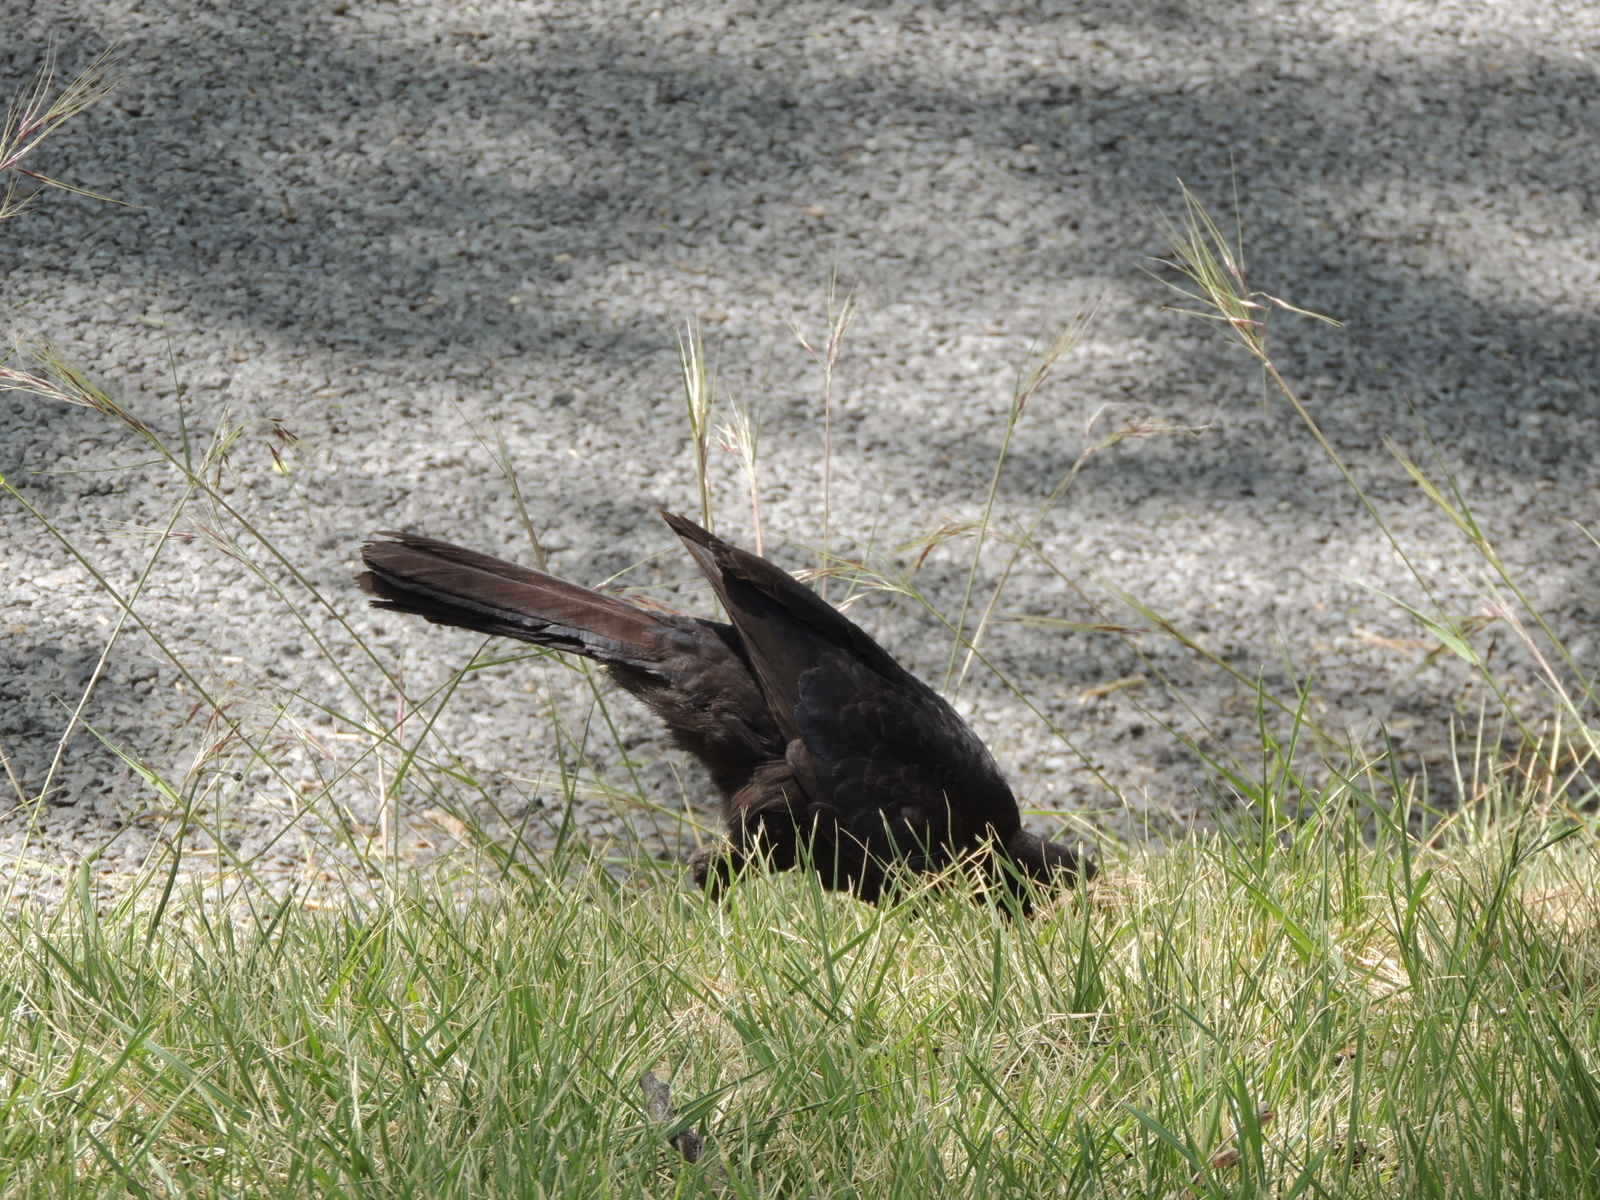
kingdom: Animalia
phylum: Chordata
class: Aves
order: Passeriformes
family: Corcoracidae
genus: Corcorax
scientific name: Corcorax melanoramphos
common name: White-winged chough
